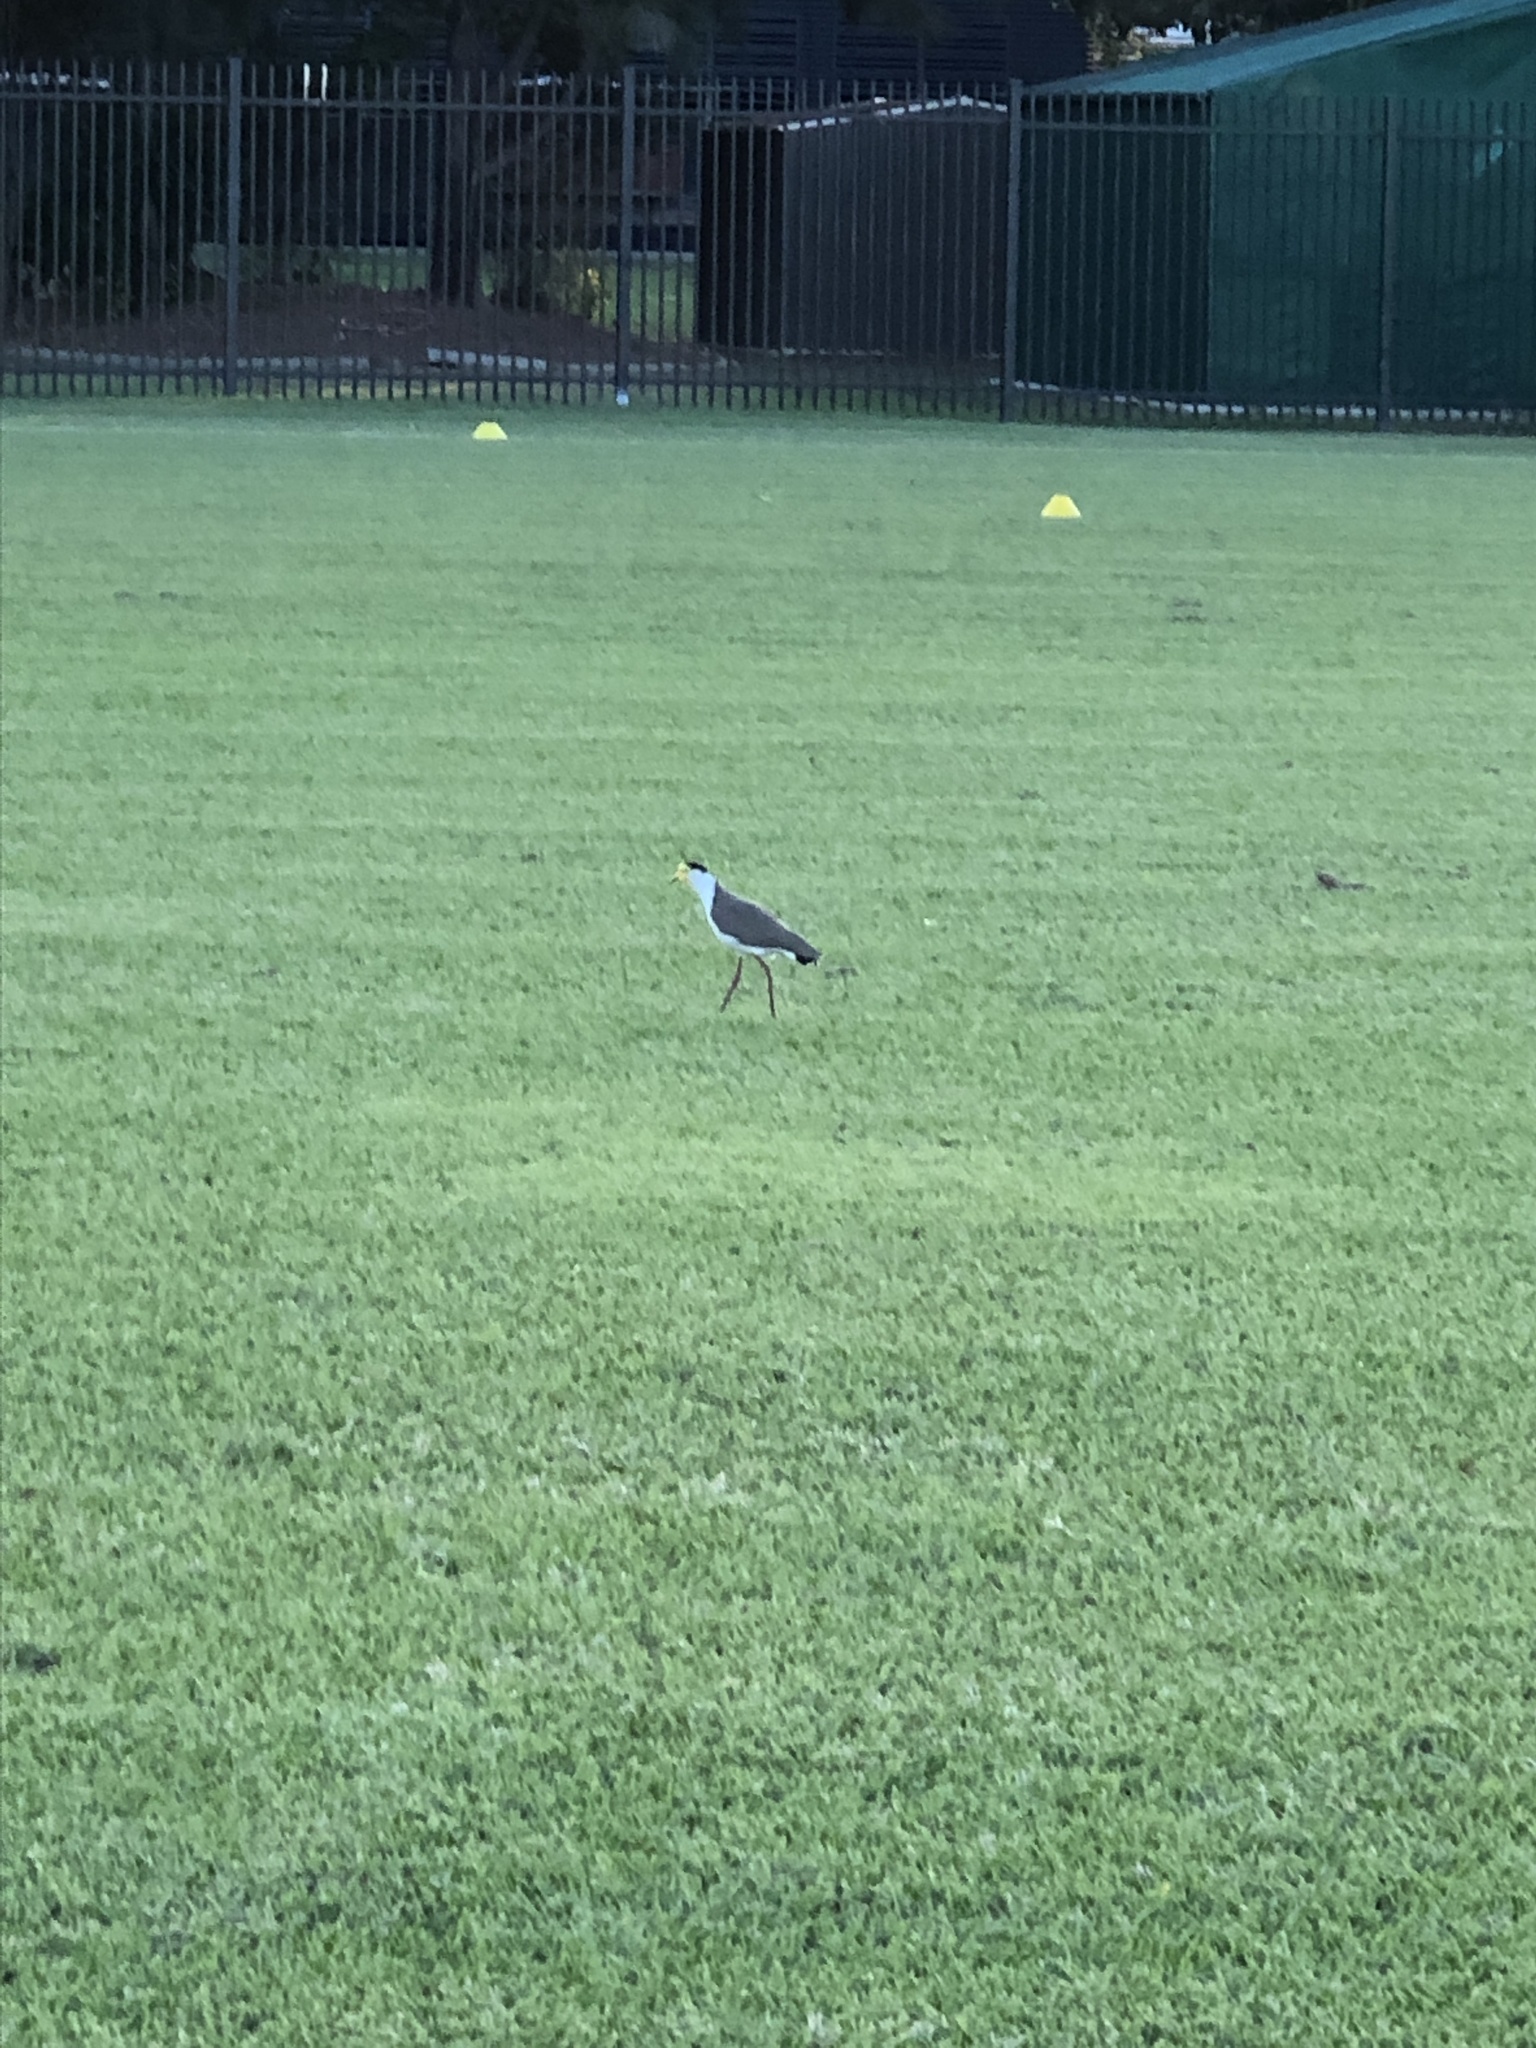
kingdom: Animalia
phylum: Chordata
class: Aves
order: Charadriiformes
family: Charadriidae
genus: Vanellus
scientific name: Vanellus miles
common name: Masked lapwing
